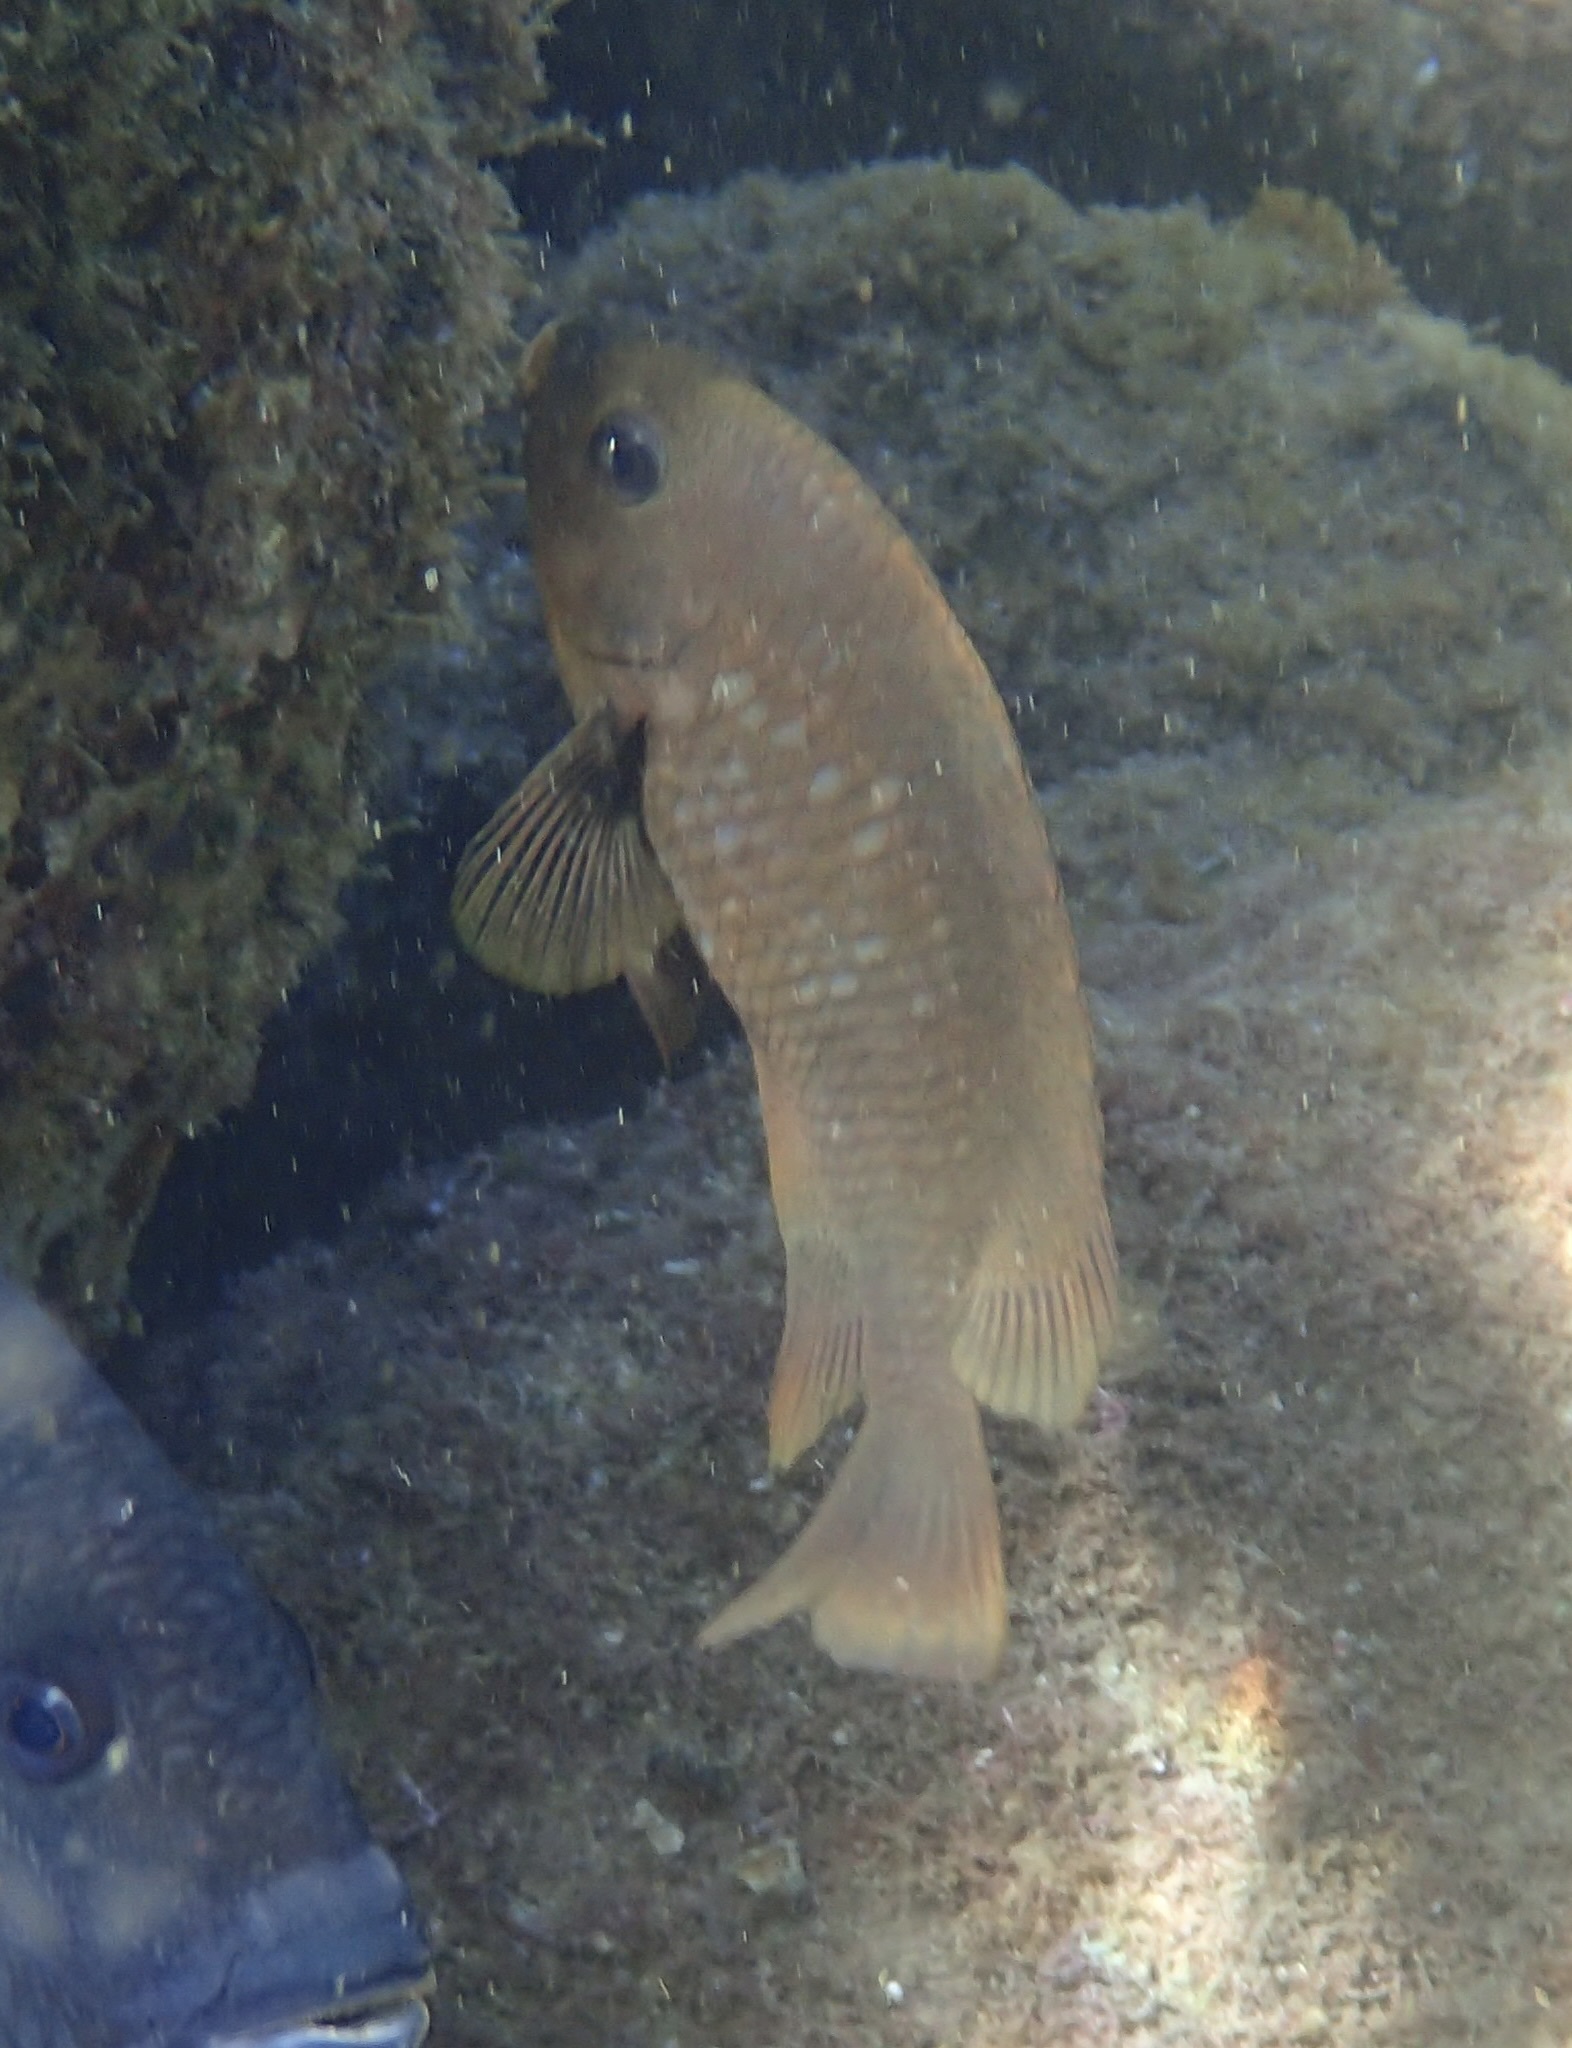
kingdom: Animalia
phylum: Chordata
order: Perciformes
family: Pomacentridae
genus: Stegastes
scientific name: Stegastes rectifraenum
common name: Cortez damselfish
